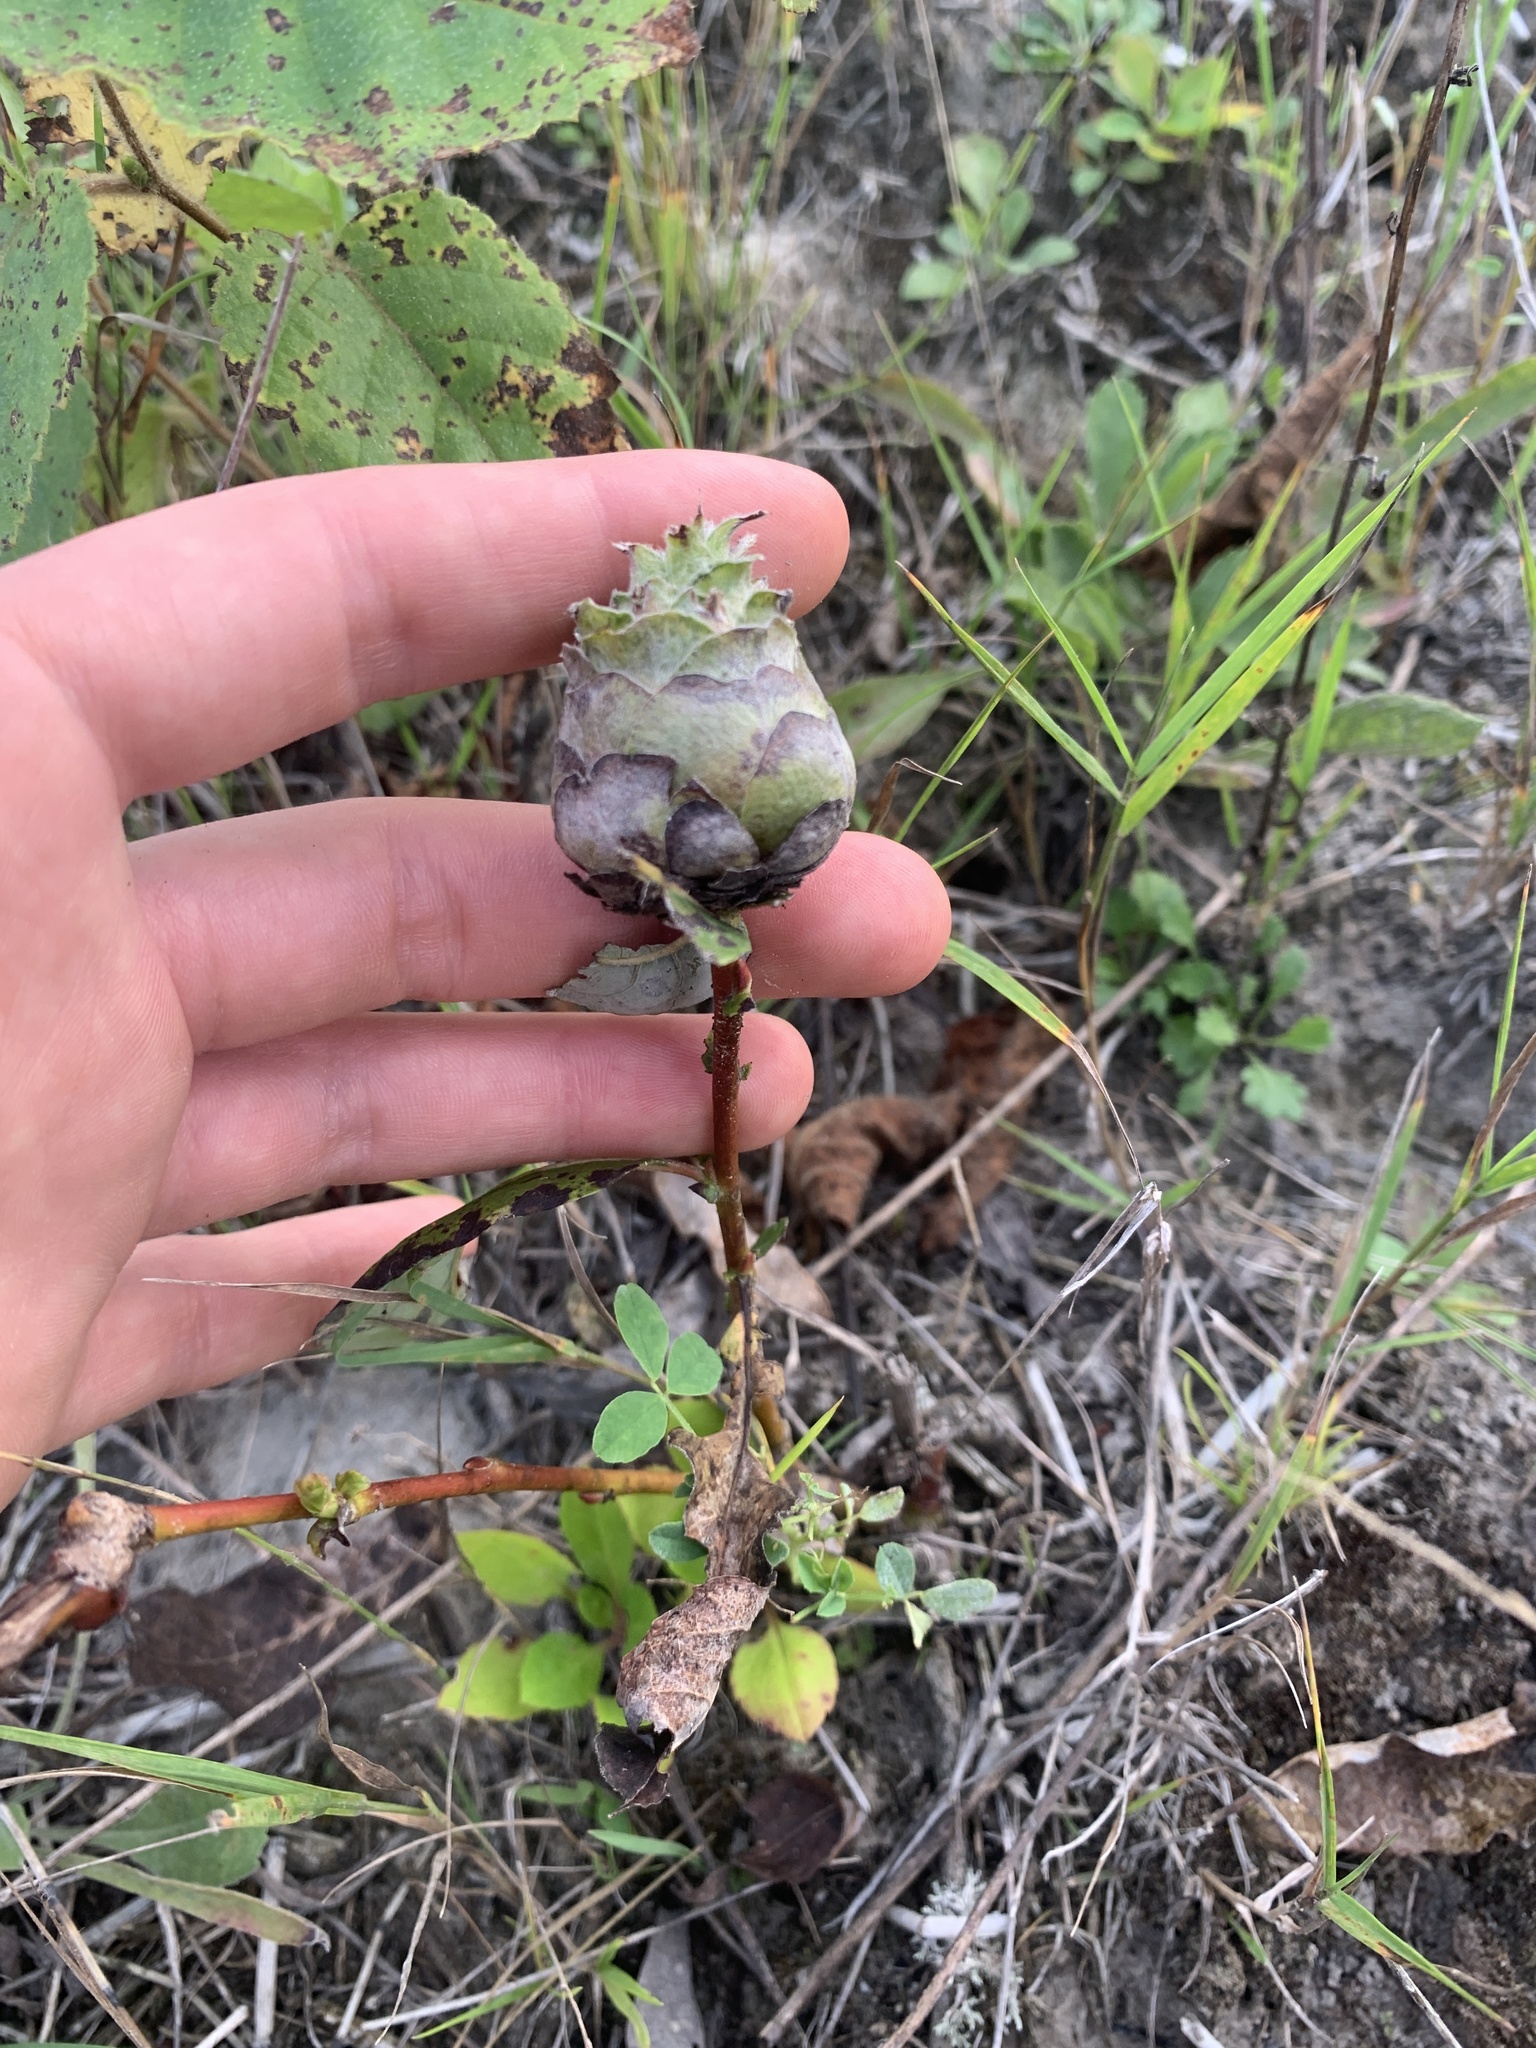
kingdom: Animalia
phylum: Arthropoda
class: Insecta
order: Diptera
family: Cecidomyiidae
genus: Rabdophaga
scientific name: Rabdophaga strobiloides
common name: Willow pinecone gall midge
